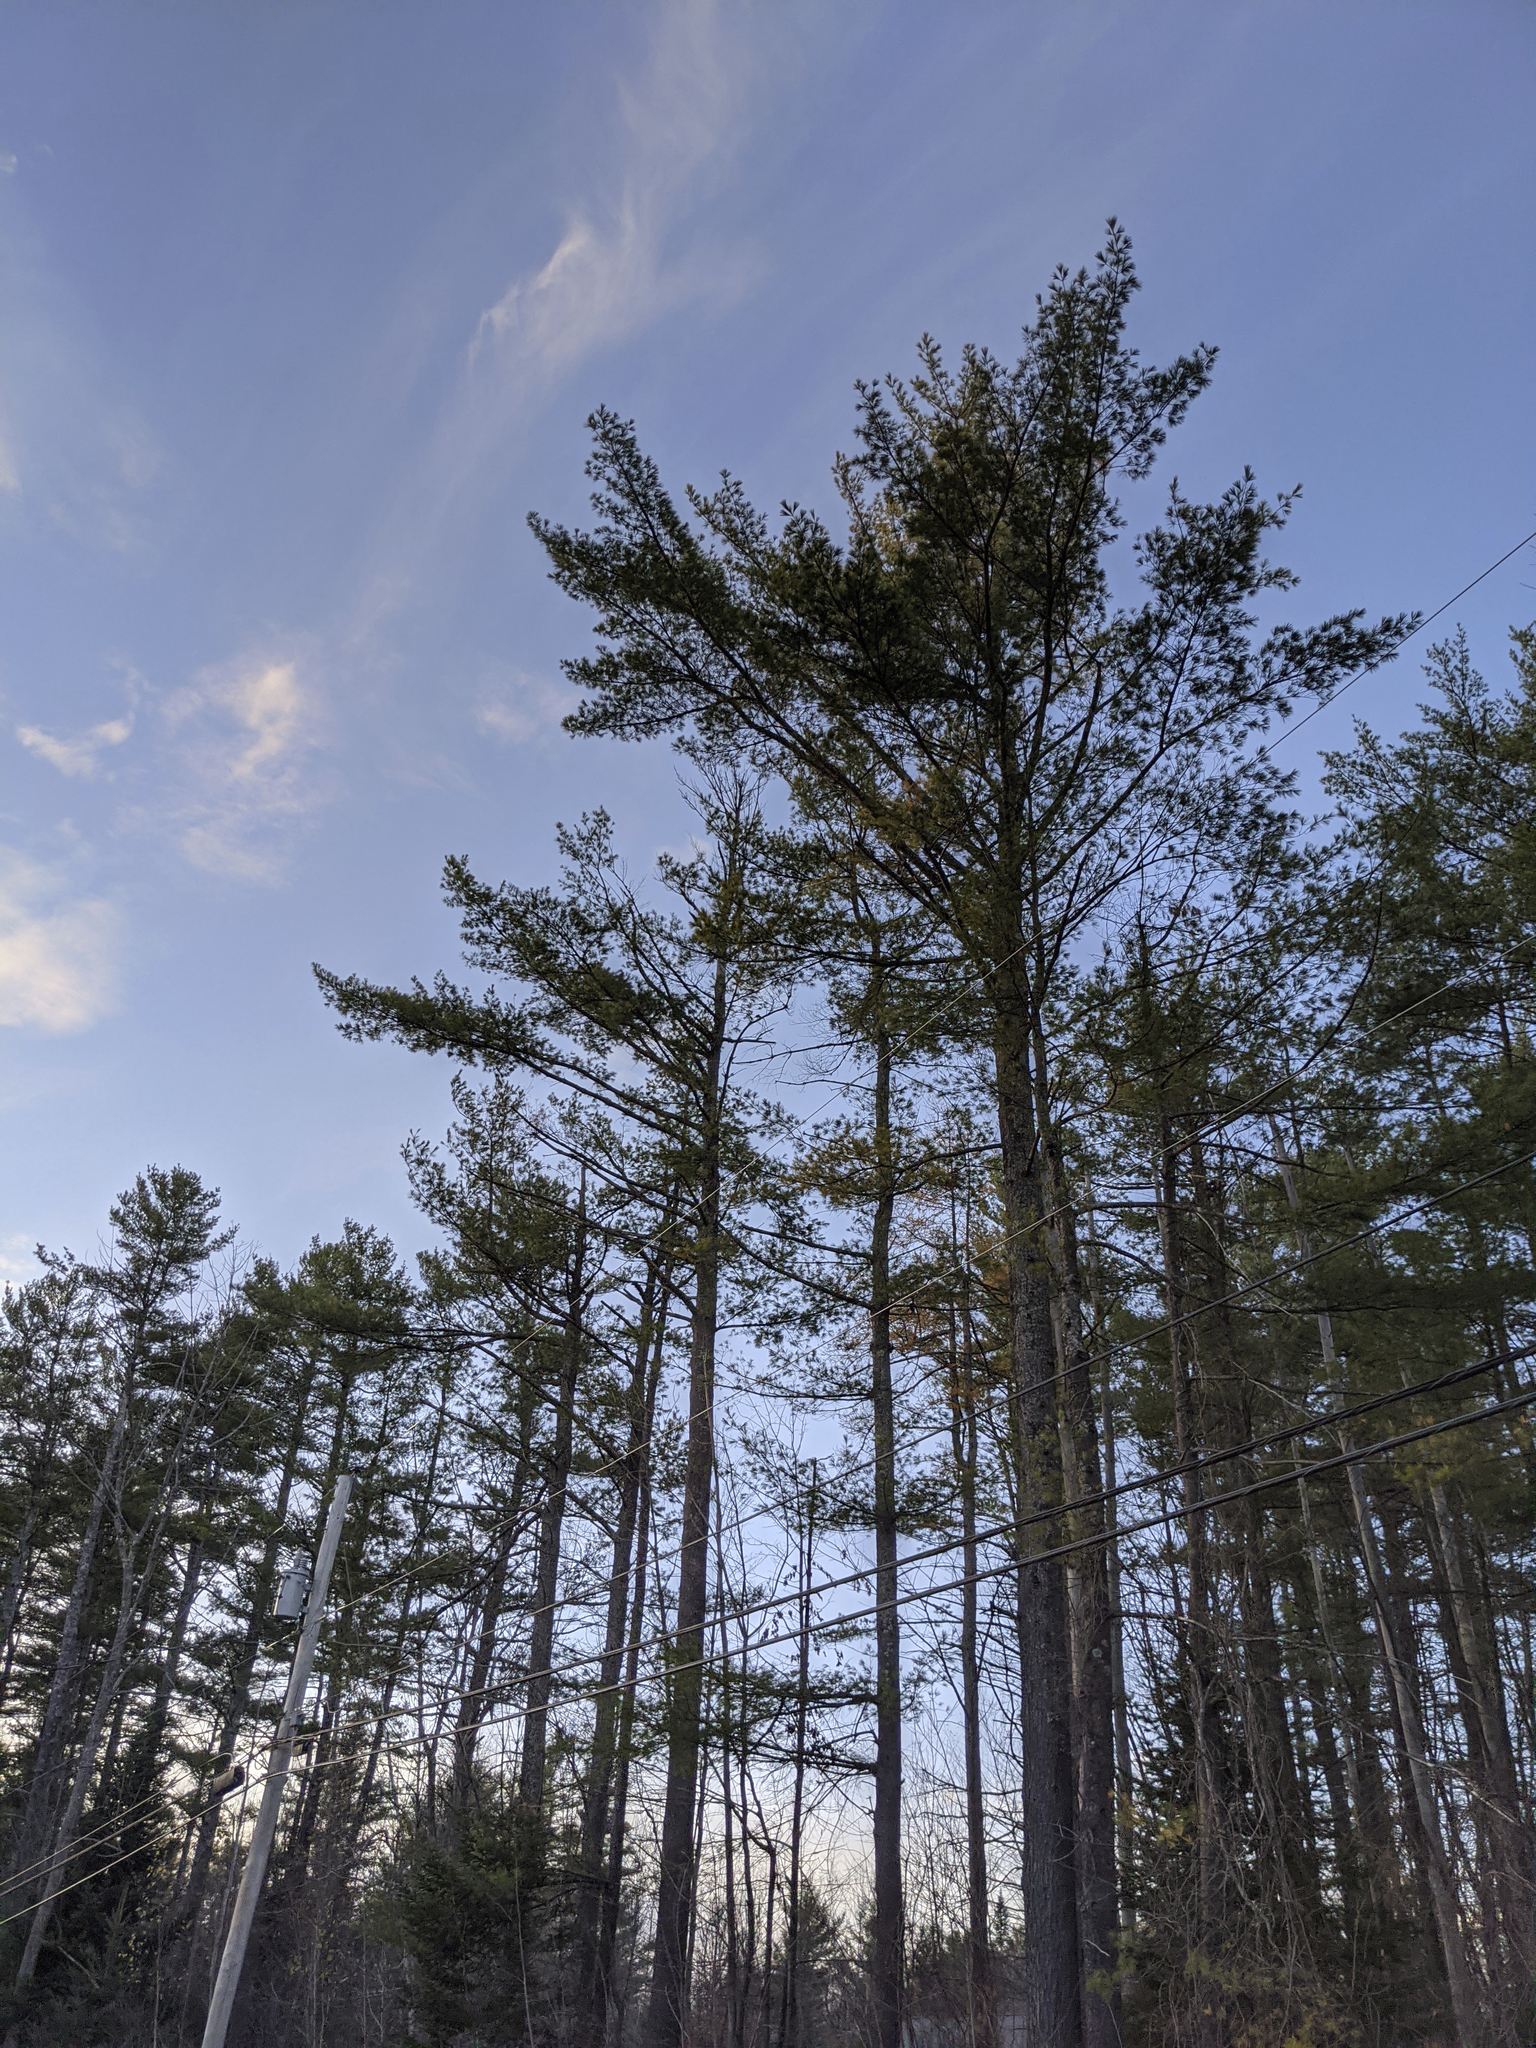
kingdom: Plantae
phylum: Tracheophyta
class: Pinopsida
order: Pinales
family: Pinaceae
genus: Pinus
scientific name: Pinus strobus
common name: Weymouth pine
